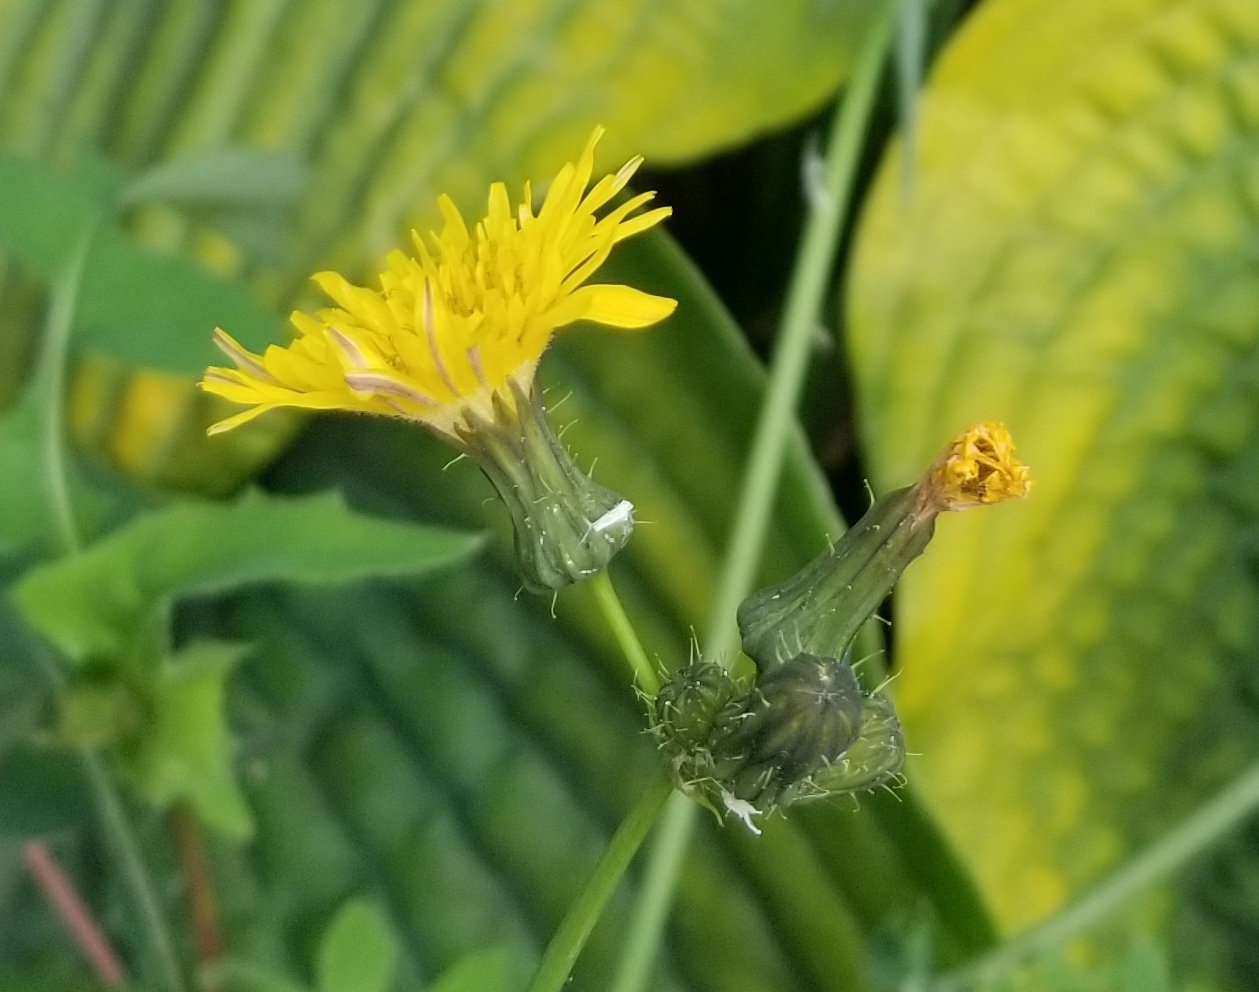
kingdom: Plantae
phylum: Tracheophyta
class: Magnoliopsida
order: Asterales
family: Asteraceae
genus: Sonchus
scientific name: Sonchus oleraceus
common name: Common sowthistle
